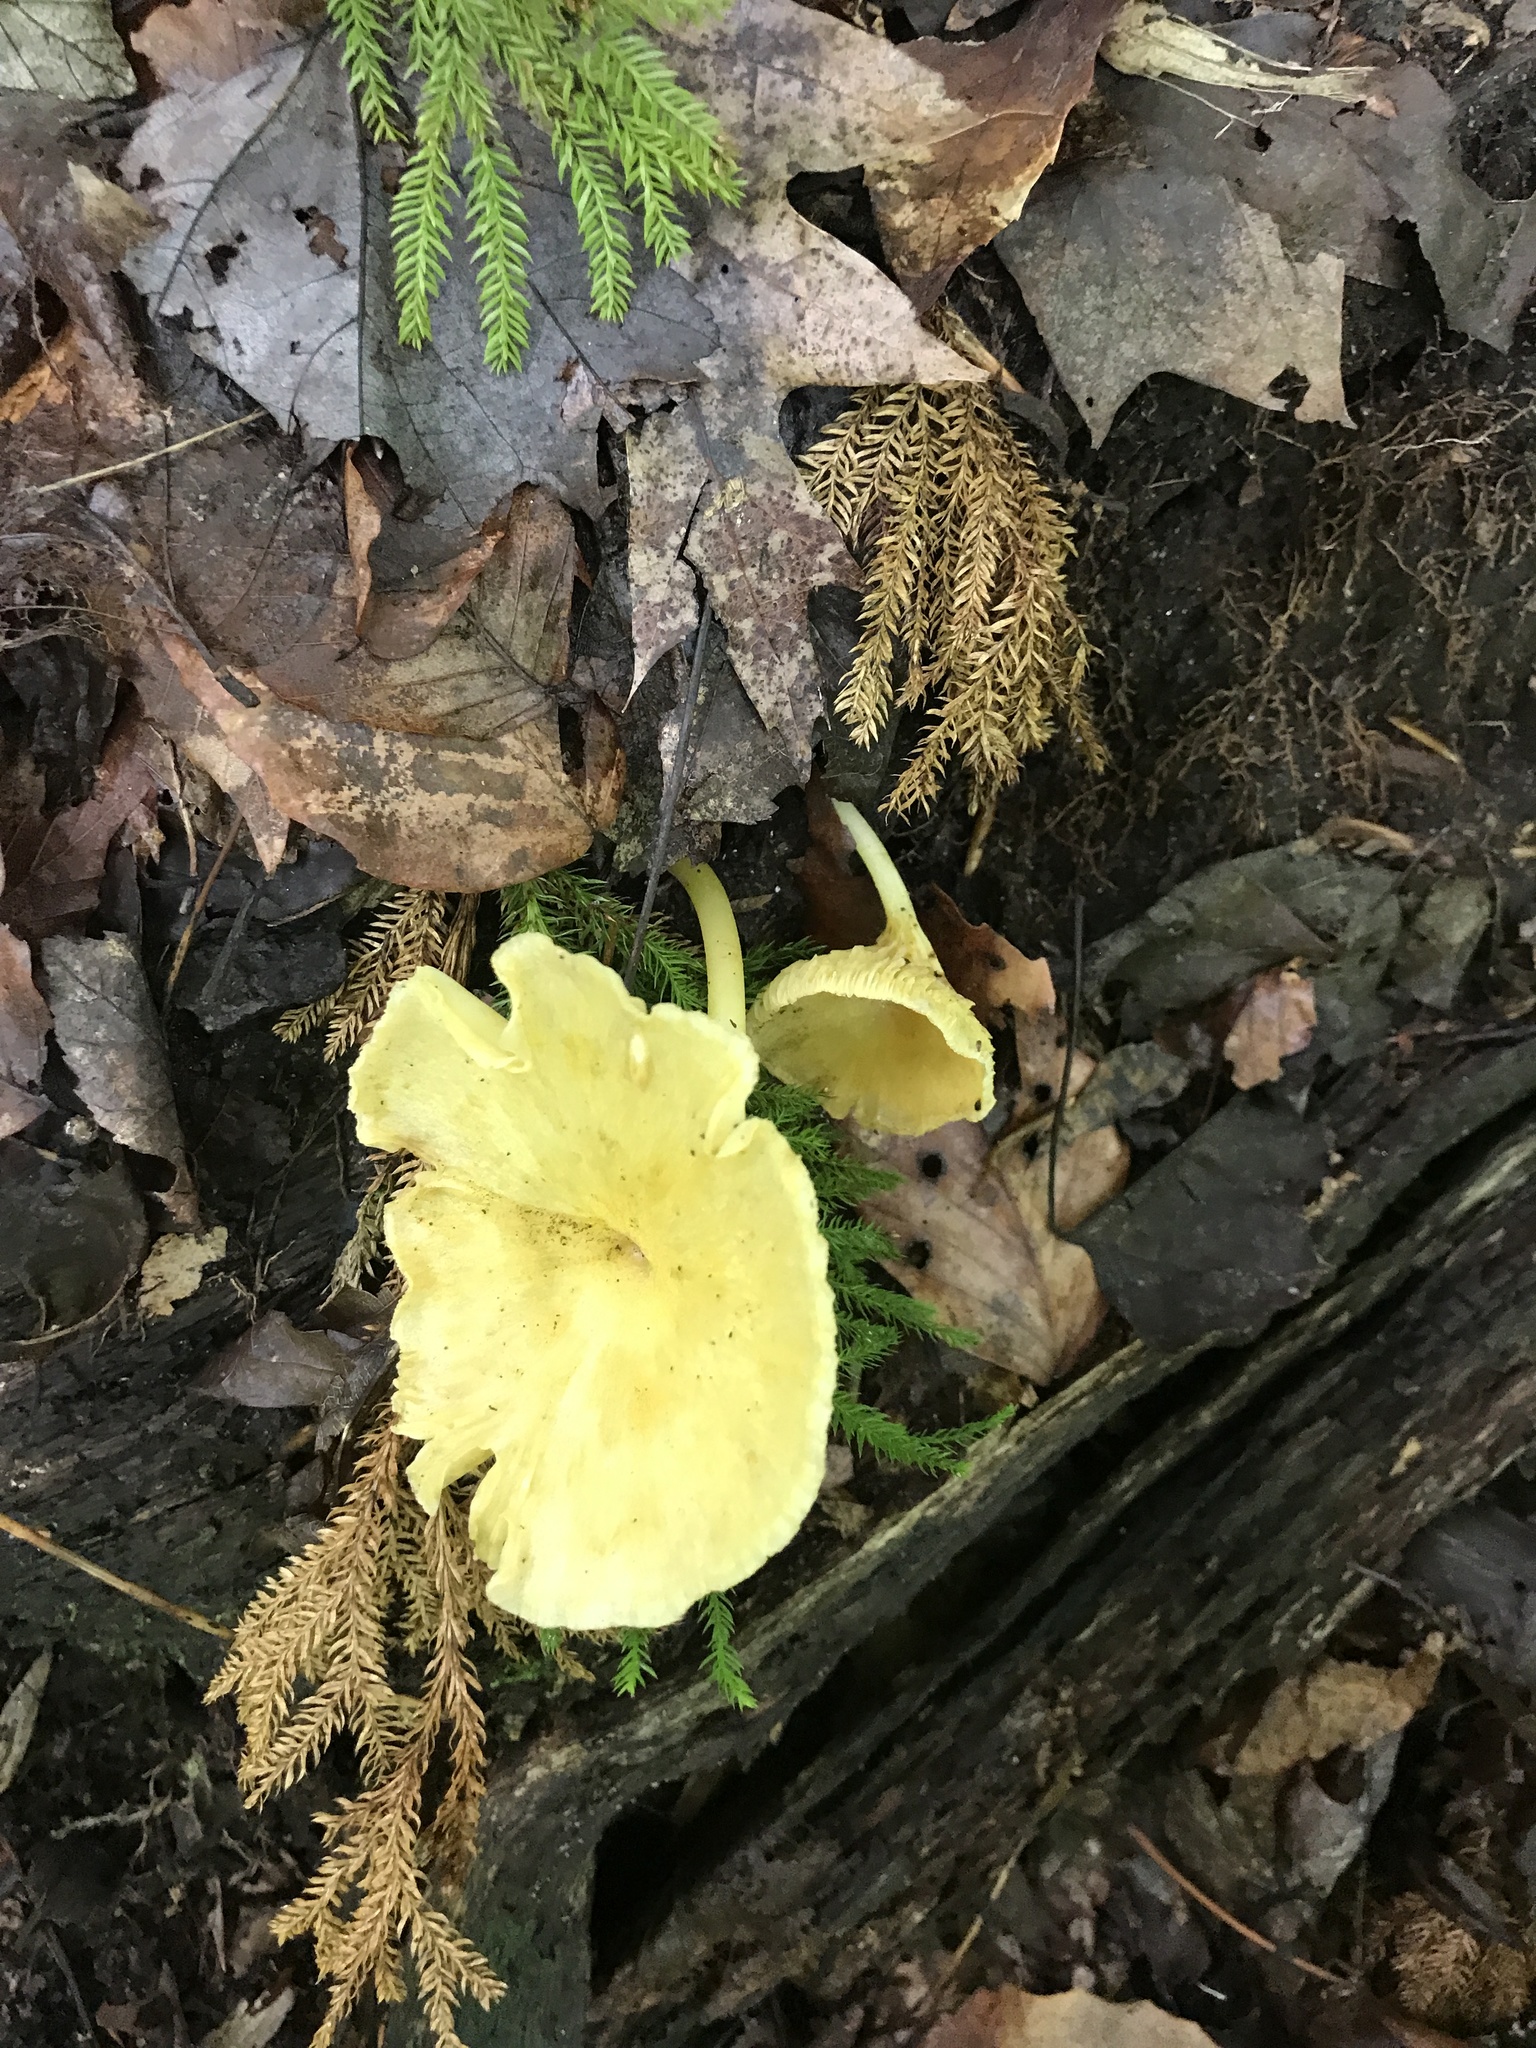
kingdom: Fungi
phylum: Basidiomycota
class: Agaricomycetes
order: Agaricales
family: Marasmiaceae
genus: Gerronema
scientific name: Gerronema strombodes
